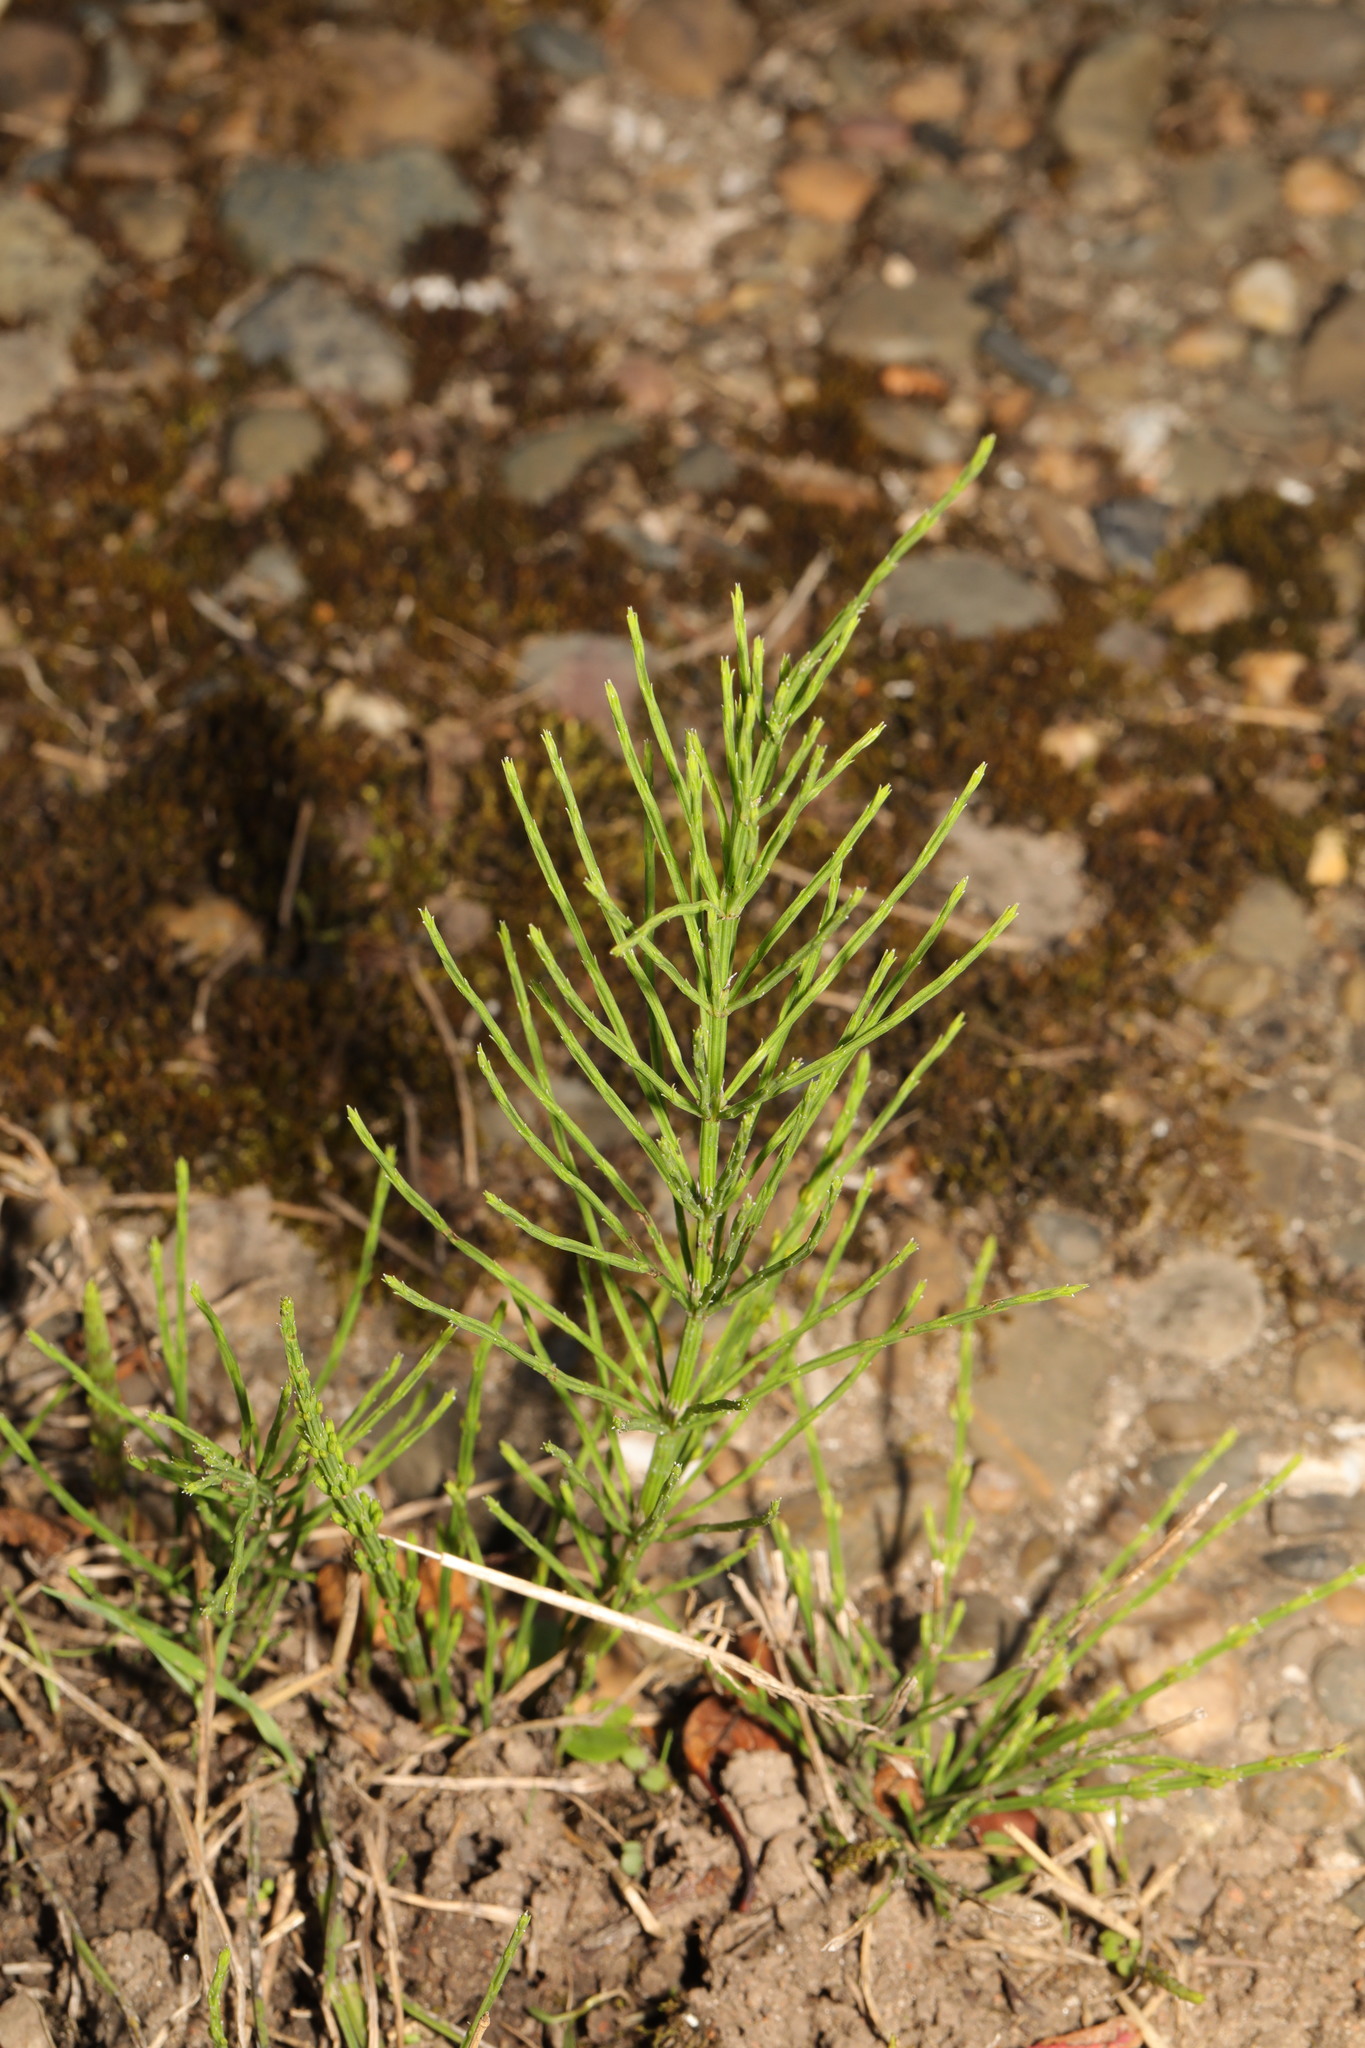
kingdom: Plantae
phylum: Tracheophyta
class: Polypodiopsida
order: Equisetales
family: Equisetaceae
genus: Equisetum
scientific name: Equisetum arvense
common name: Field horsetail
